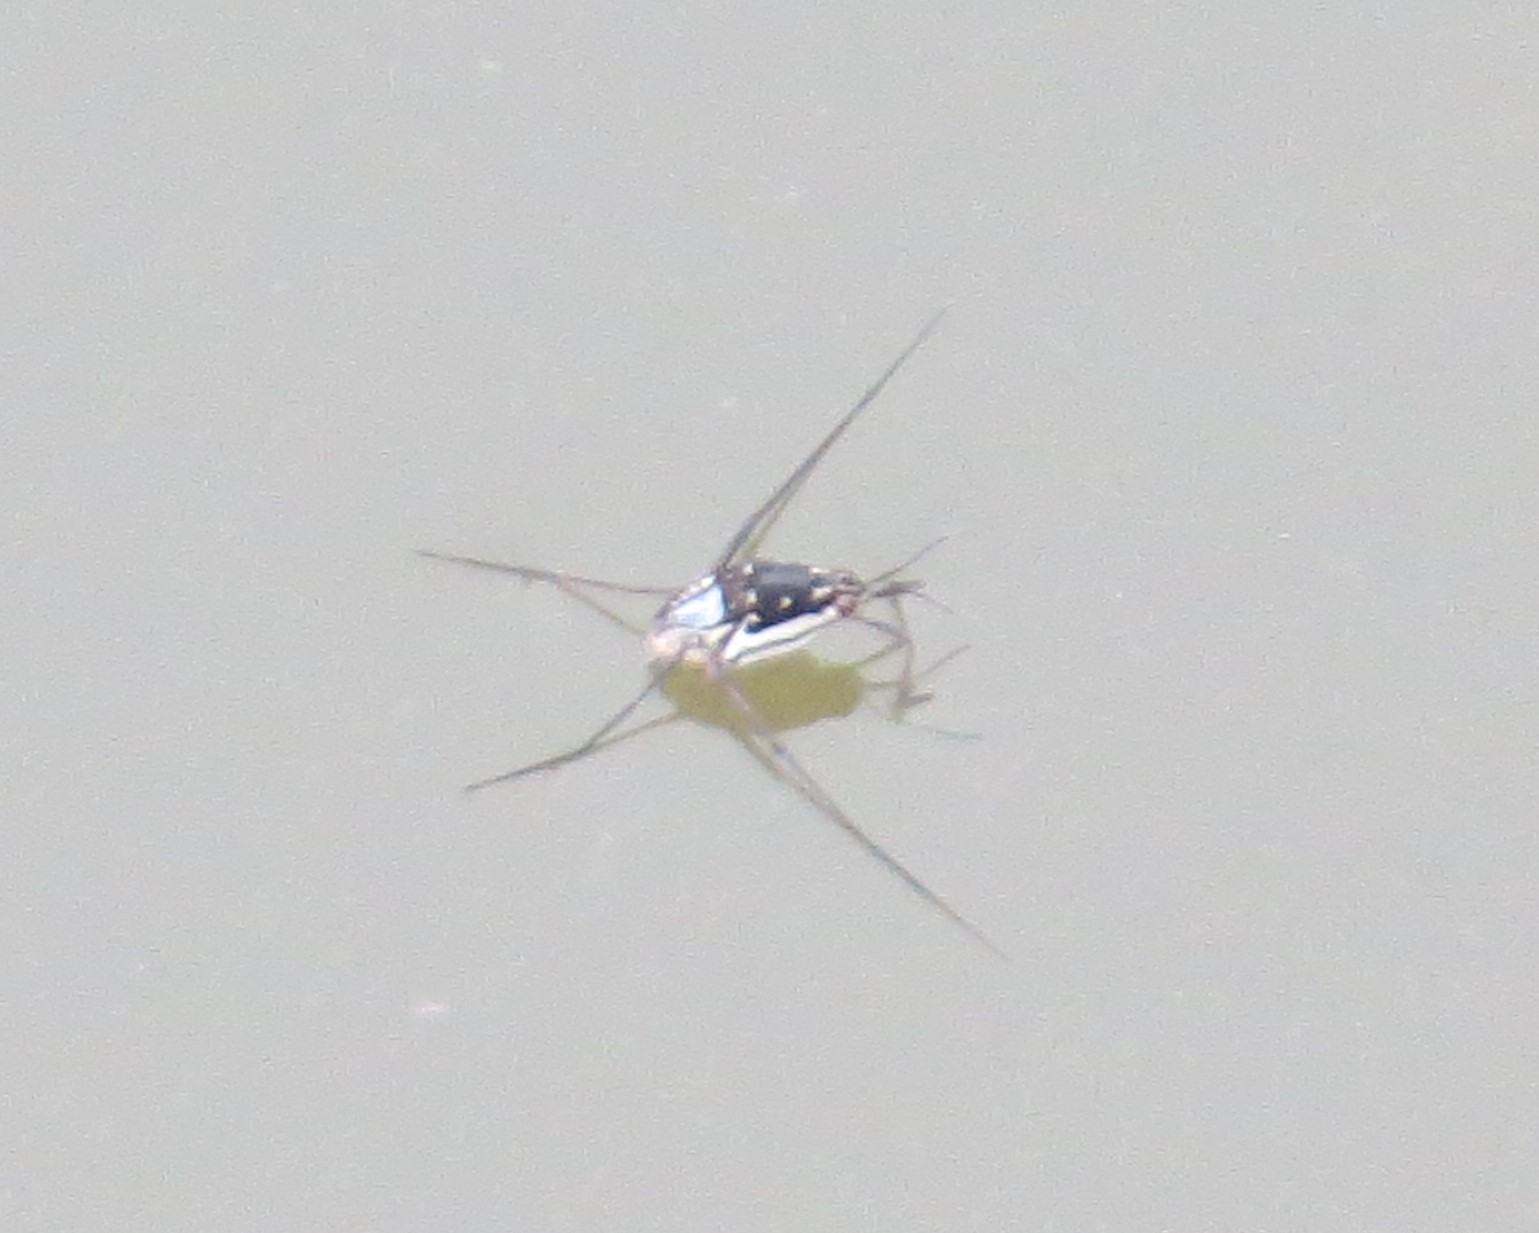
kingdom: Animalia
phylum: Arthropoda
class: Insecta
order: Hemiptera
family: Gerridae
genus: Trepobates
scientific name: Trepobates subnitidus
